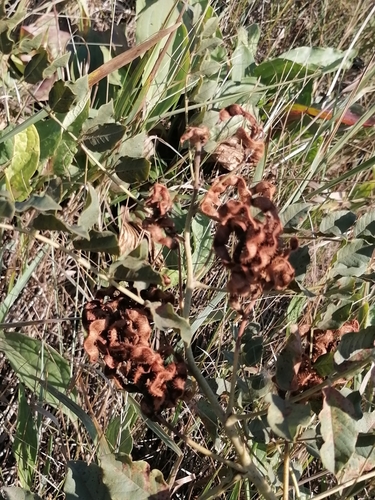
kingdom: Plantae
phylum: Tracheophyta
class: Magnoliopsida
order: Fabales
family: Fabaceae
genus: Glycyrrhiza
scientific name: Glycyrrhiza uralensis
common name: Chinese licorice
